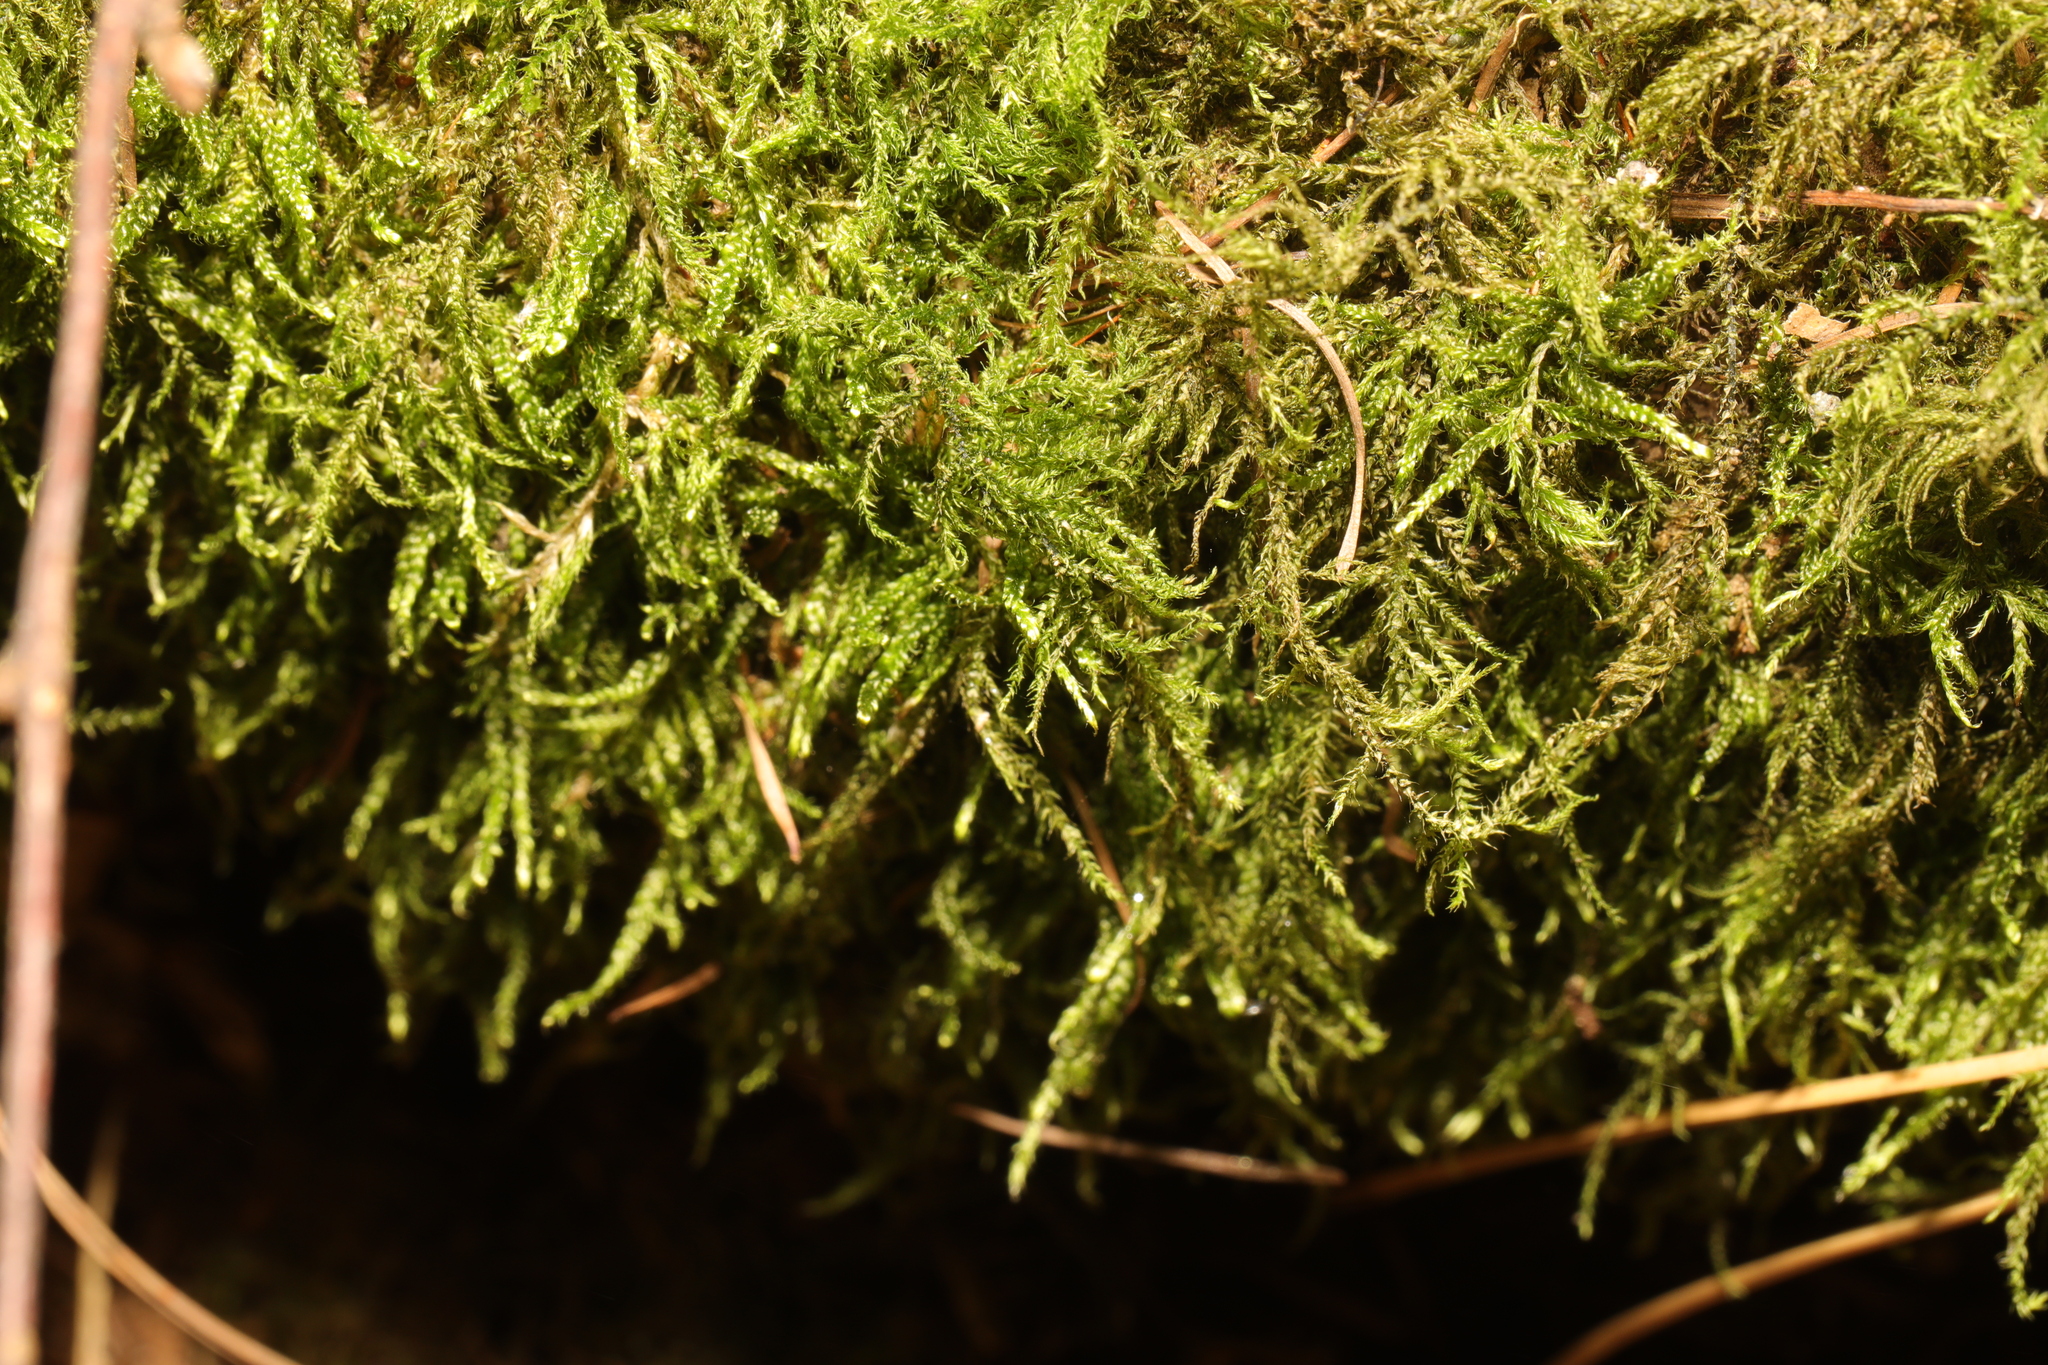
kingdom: Plantae
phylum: Bryophyta
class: Bryopsida
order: Hypnales
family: Hypnaceae
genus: Hypnum
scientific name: Hypnum cupressiforme
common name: Cypress-leaved plait-moss
